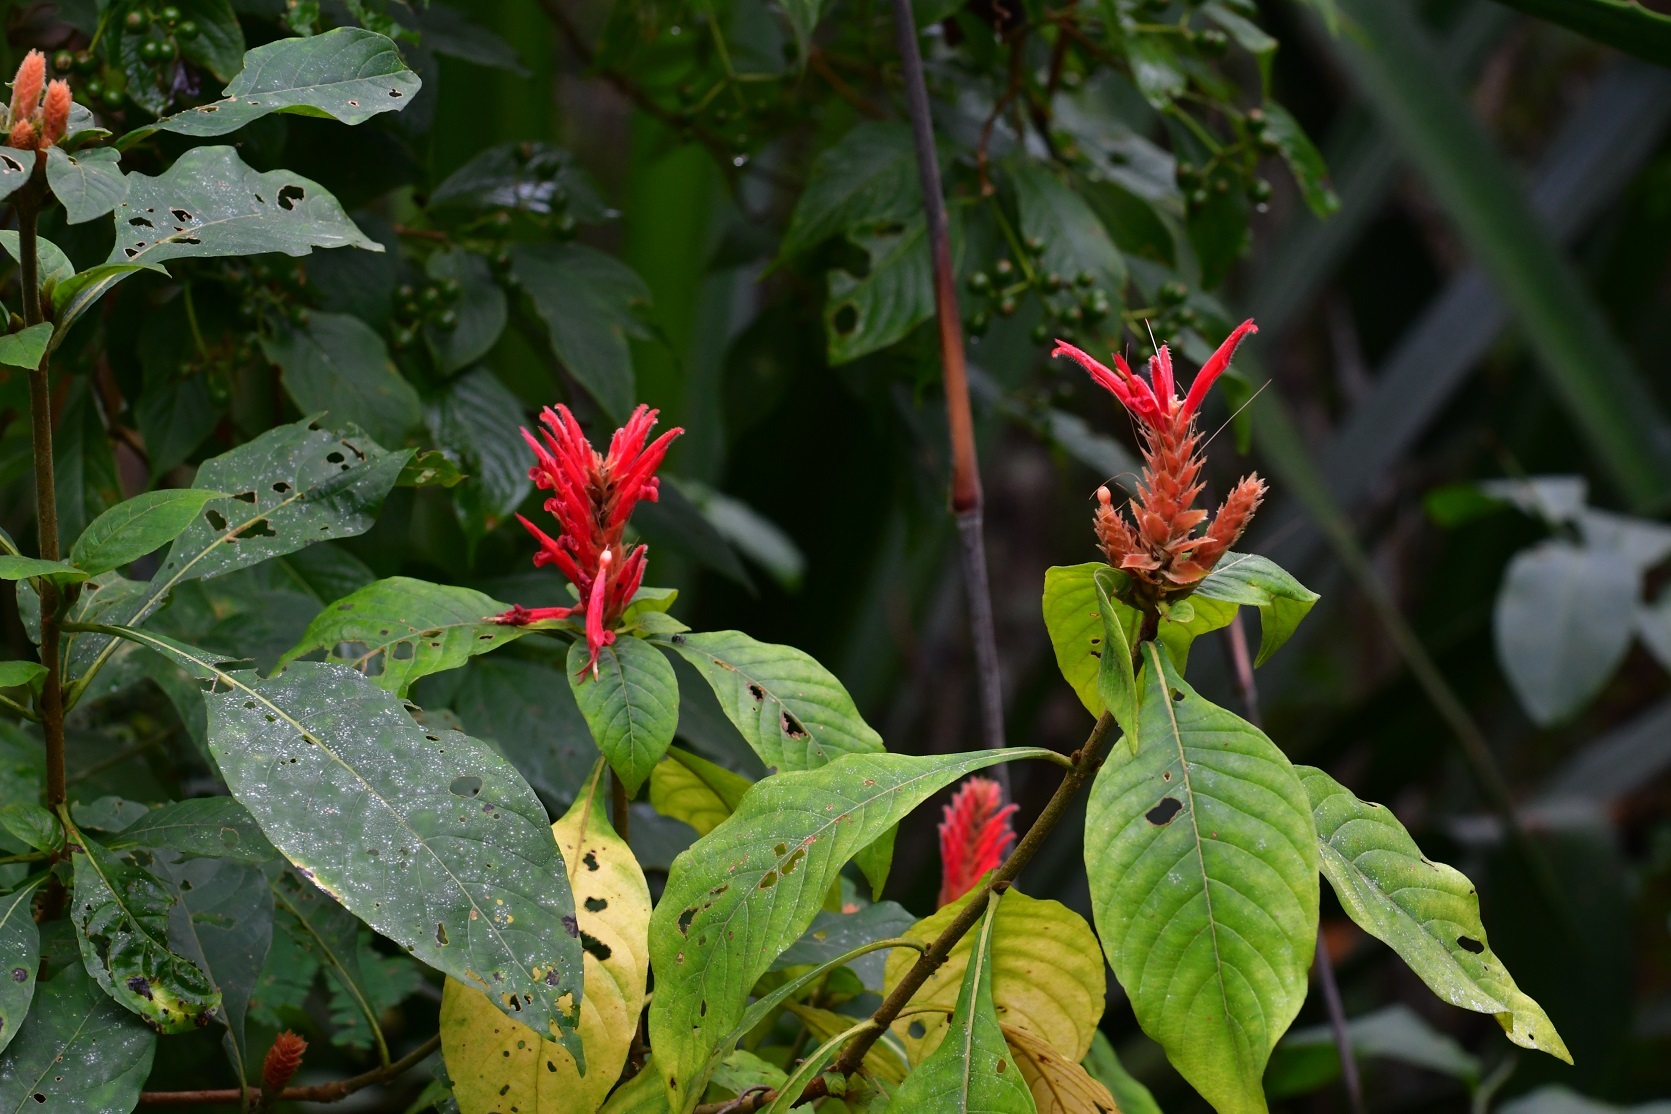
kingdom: Plantae
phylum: Tracheophyta
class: Magnoliopsida
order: Lamiales
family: Acanthaceae
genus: Aphelandra
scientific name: Aphelandra scabra
